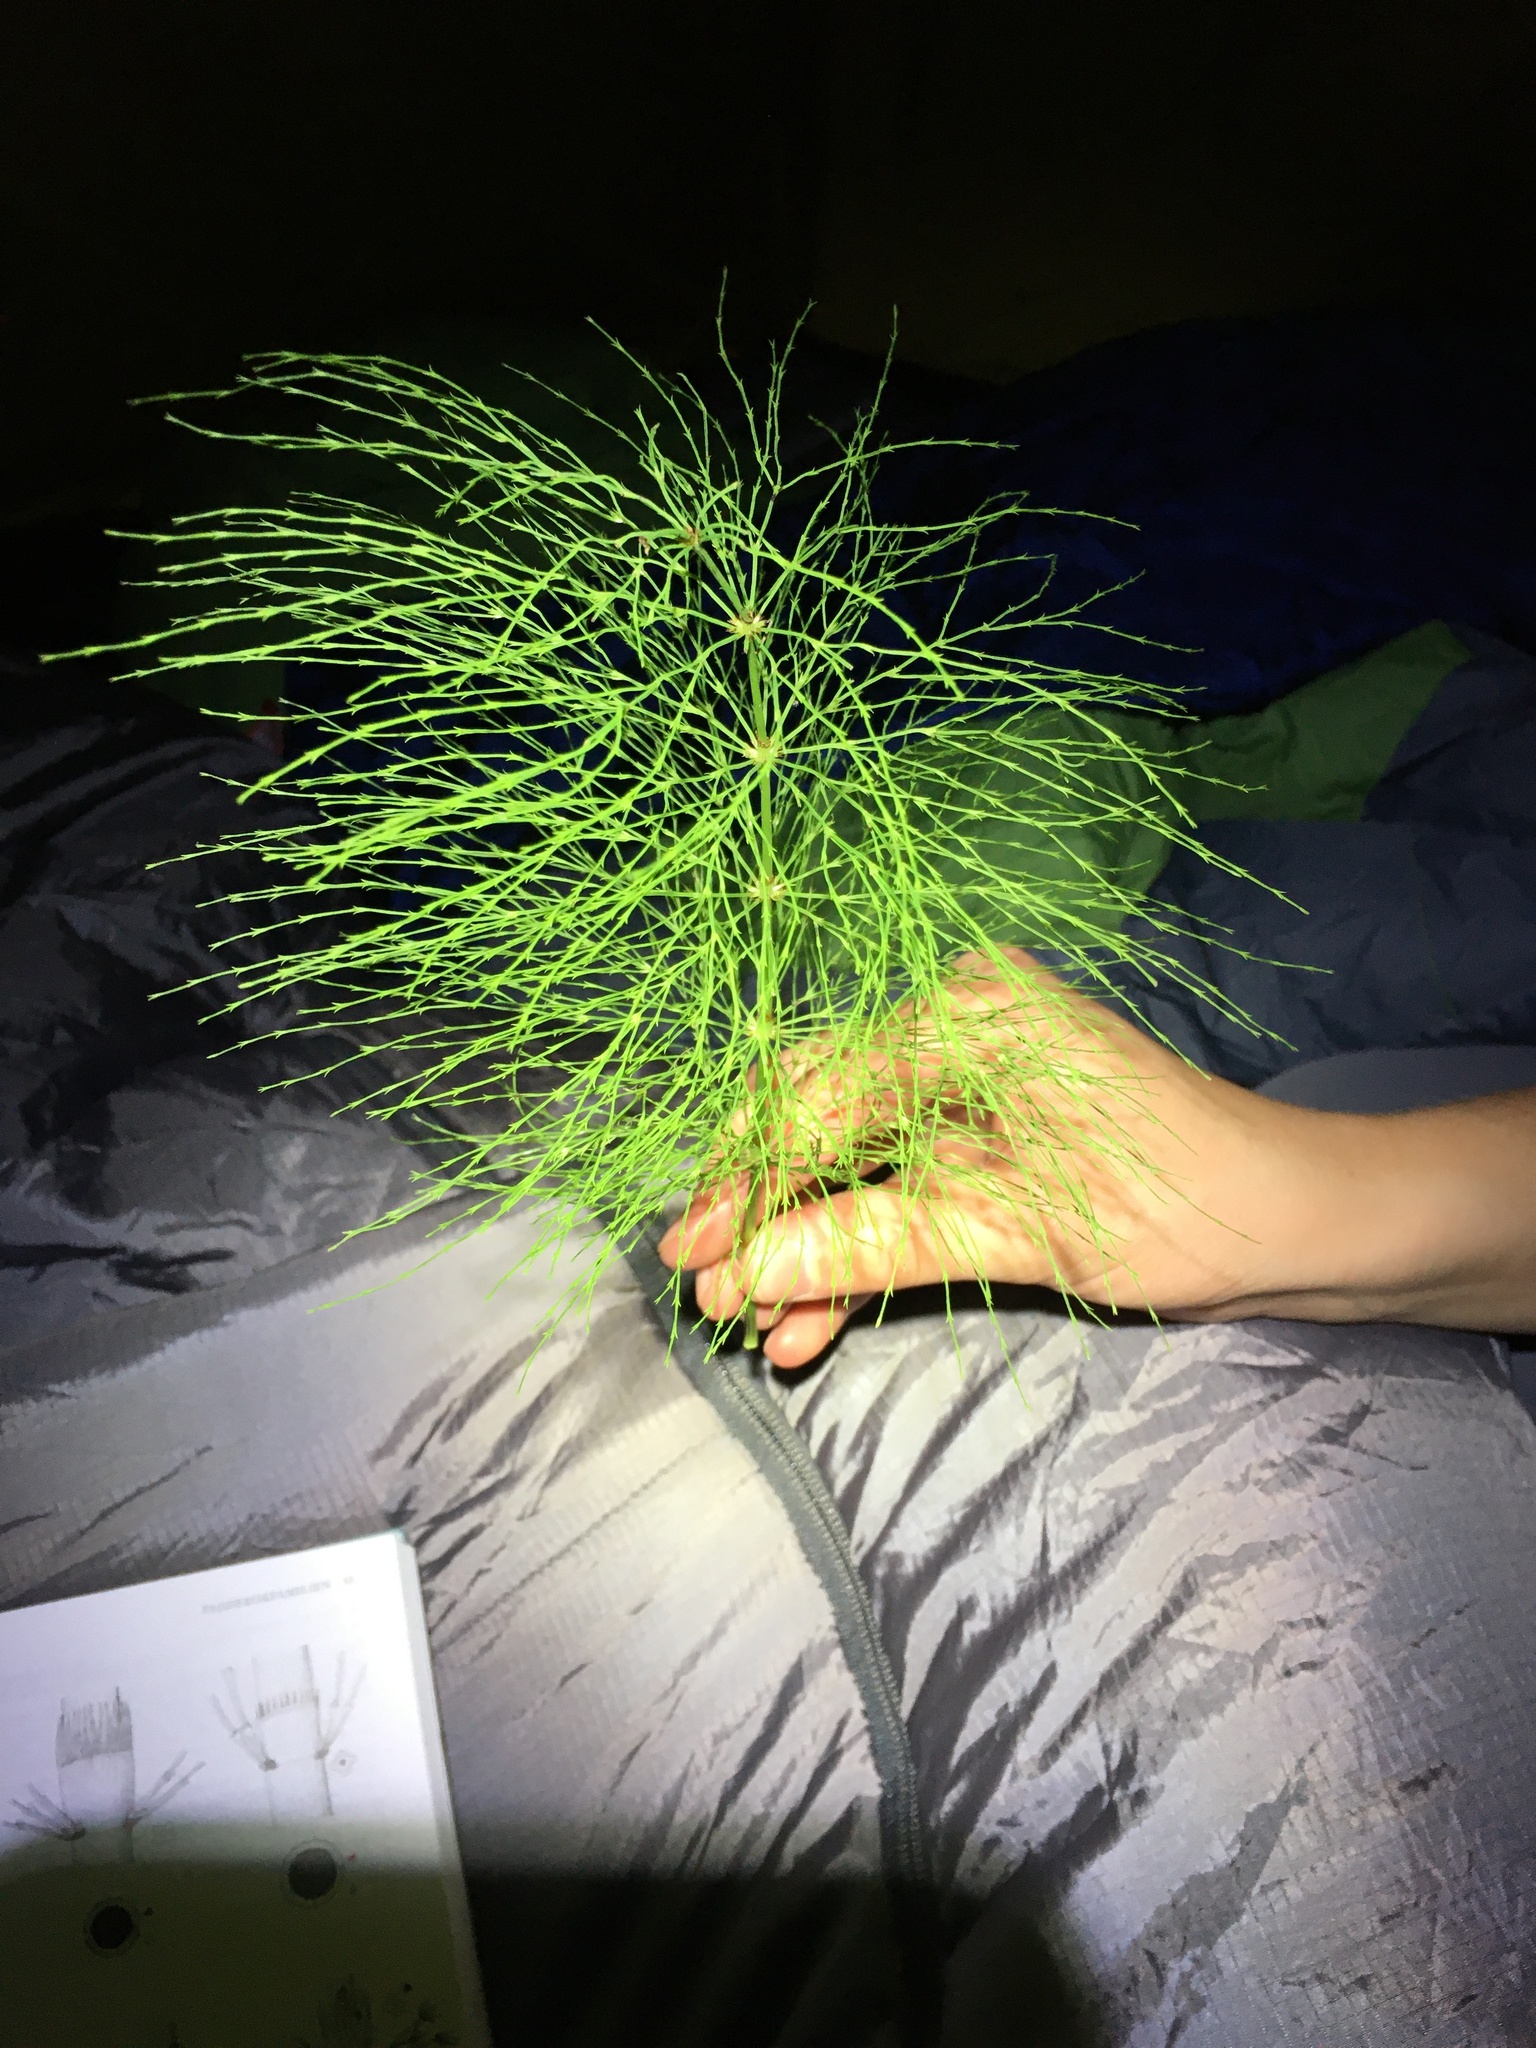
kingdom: Plantae
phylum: Tracheophyta
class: Polypodiopsida
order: Equisetales
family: Equisetaceae
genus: Equisetum
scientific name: Equisetum sylvaticum
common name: Wood horsetail
